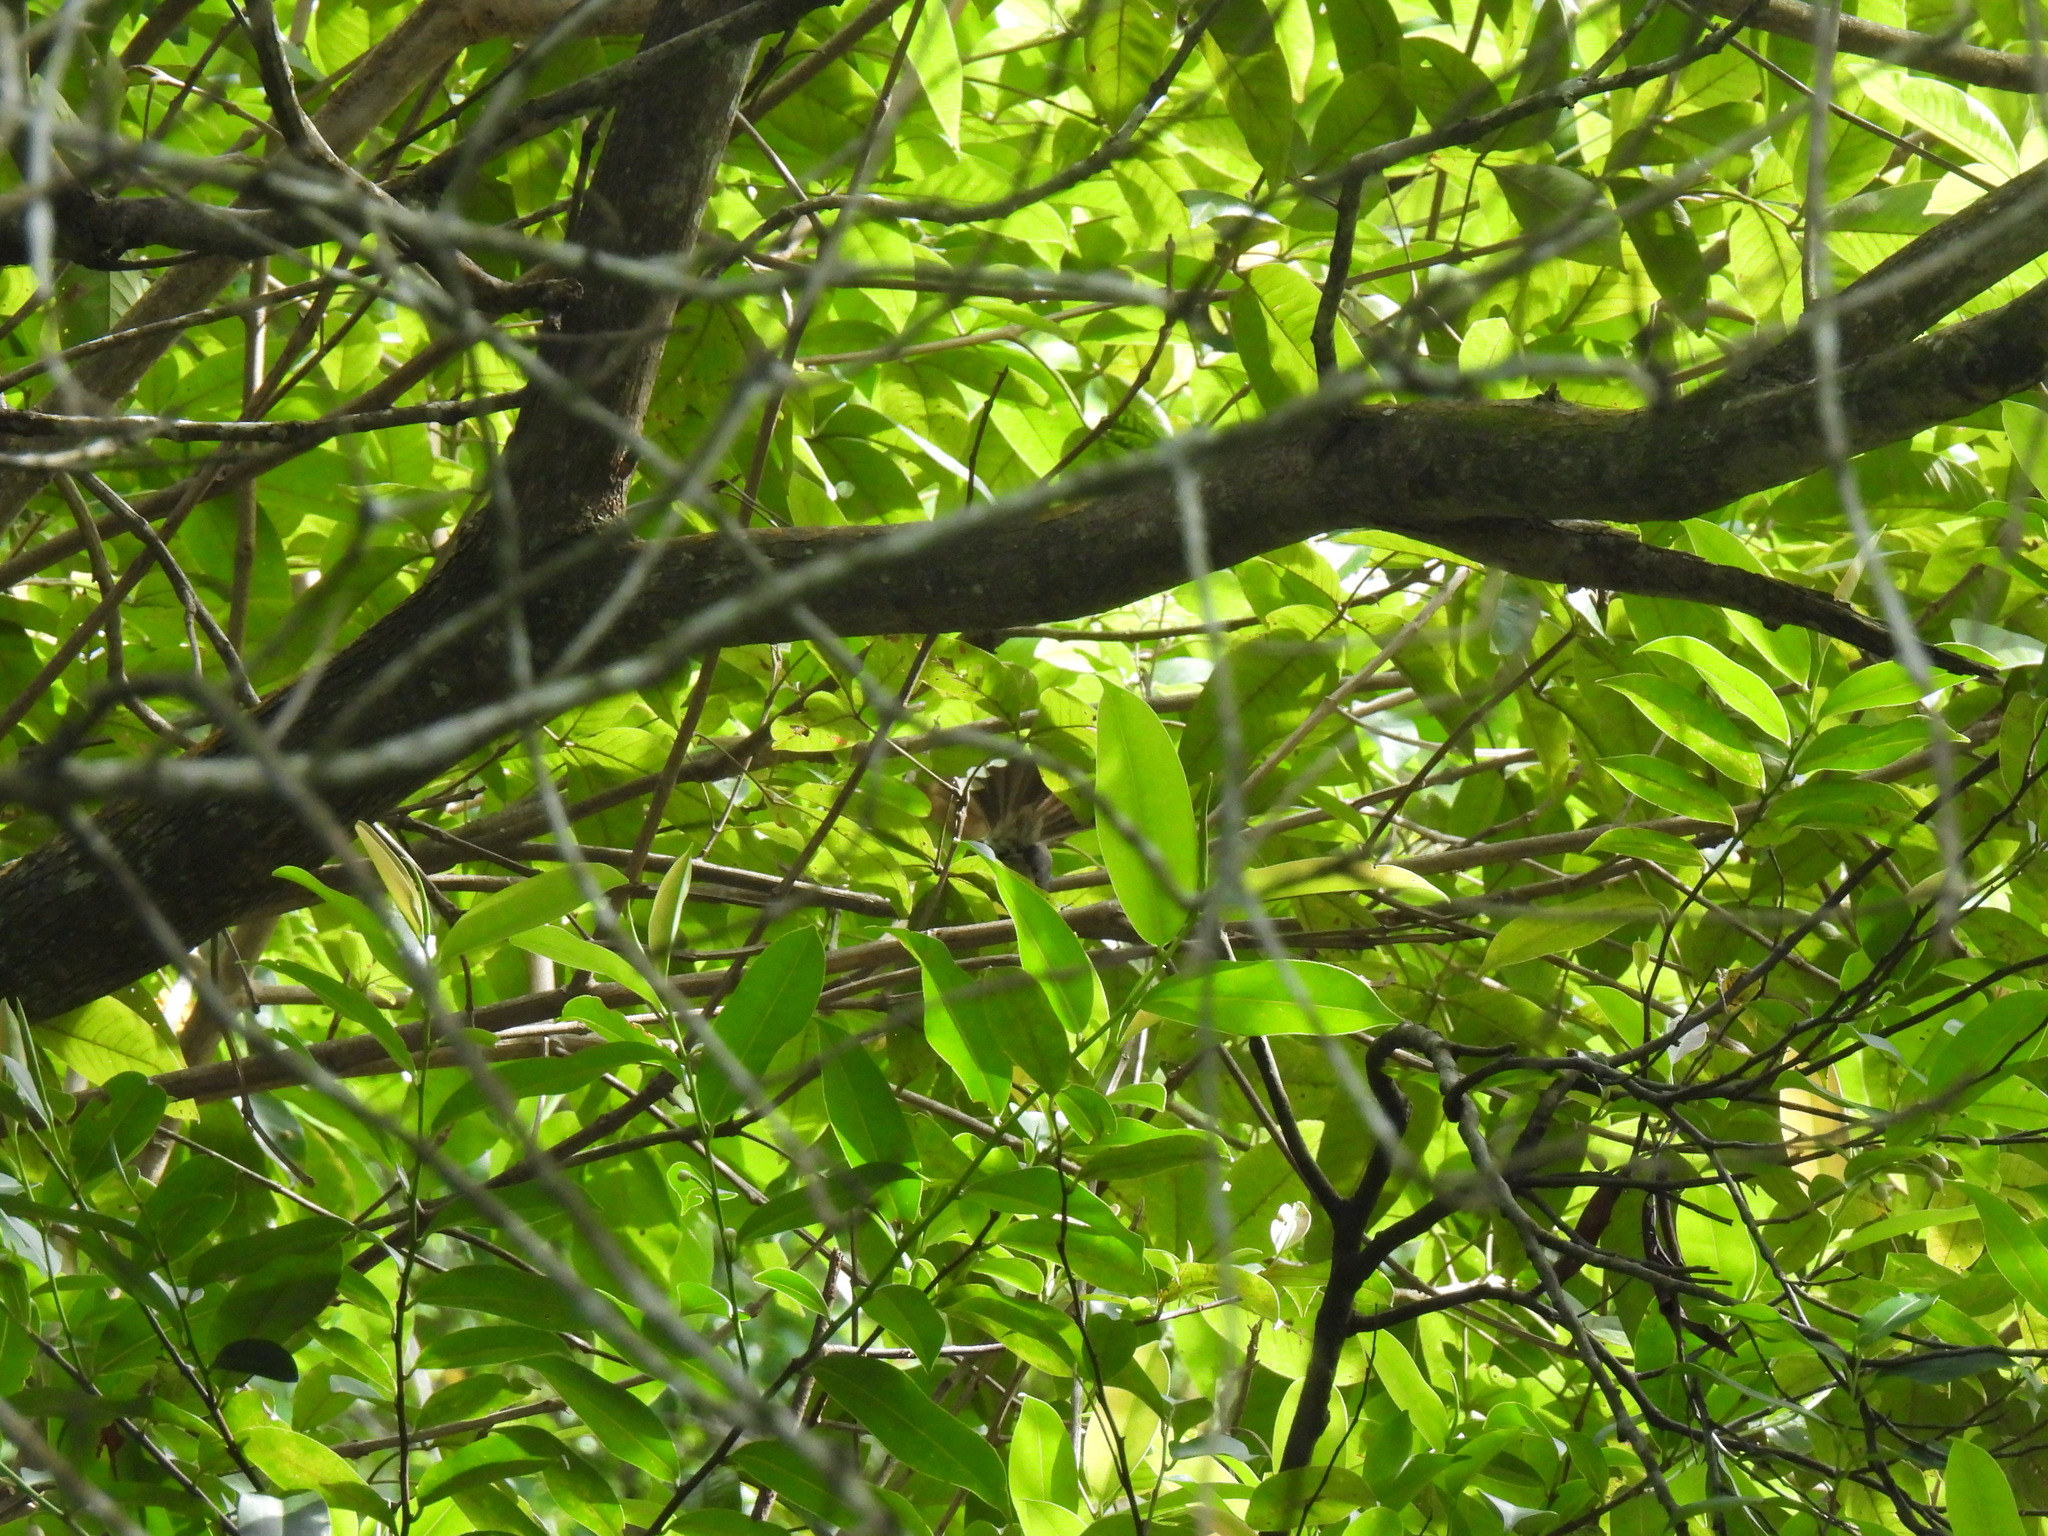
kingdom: Animalia
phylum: Chordata
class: Aves
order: Passeriformes
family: Rhipiduridae
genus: Rhipidura
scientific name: Rhipidura javanica
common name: Pied fantail
